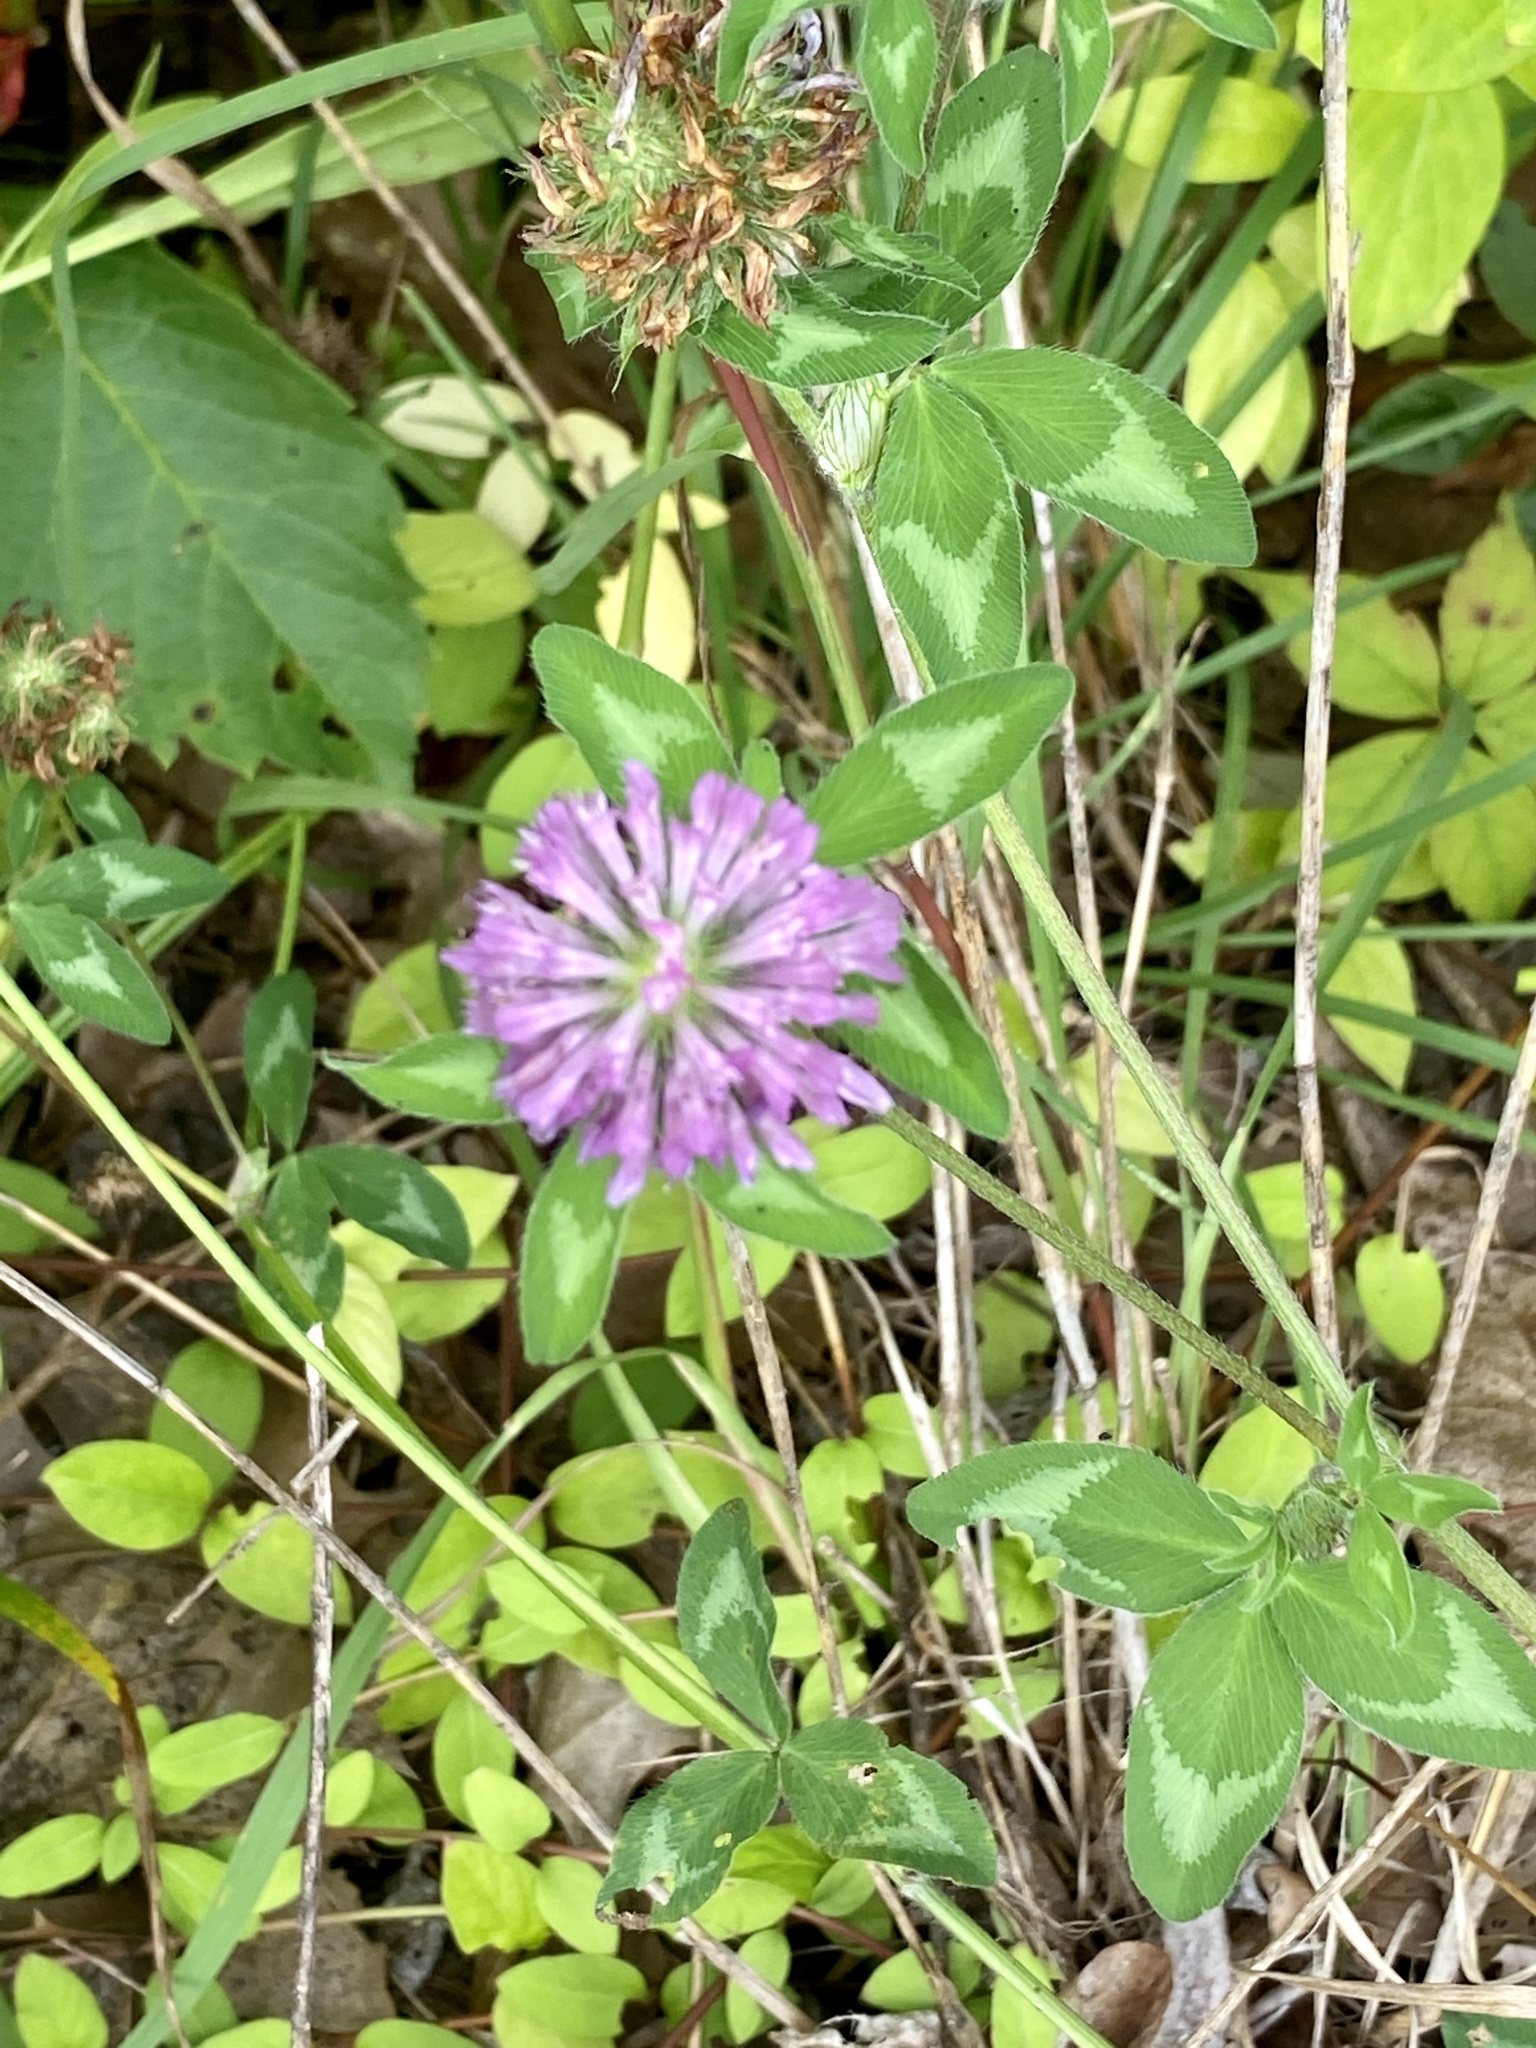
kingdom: Plantae
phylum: Tracheophyta
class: Magnoliopsida
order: Fabales
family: Fabaceae
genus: Trifolium
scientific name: Trifolium pratense
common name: Red clover
